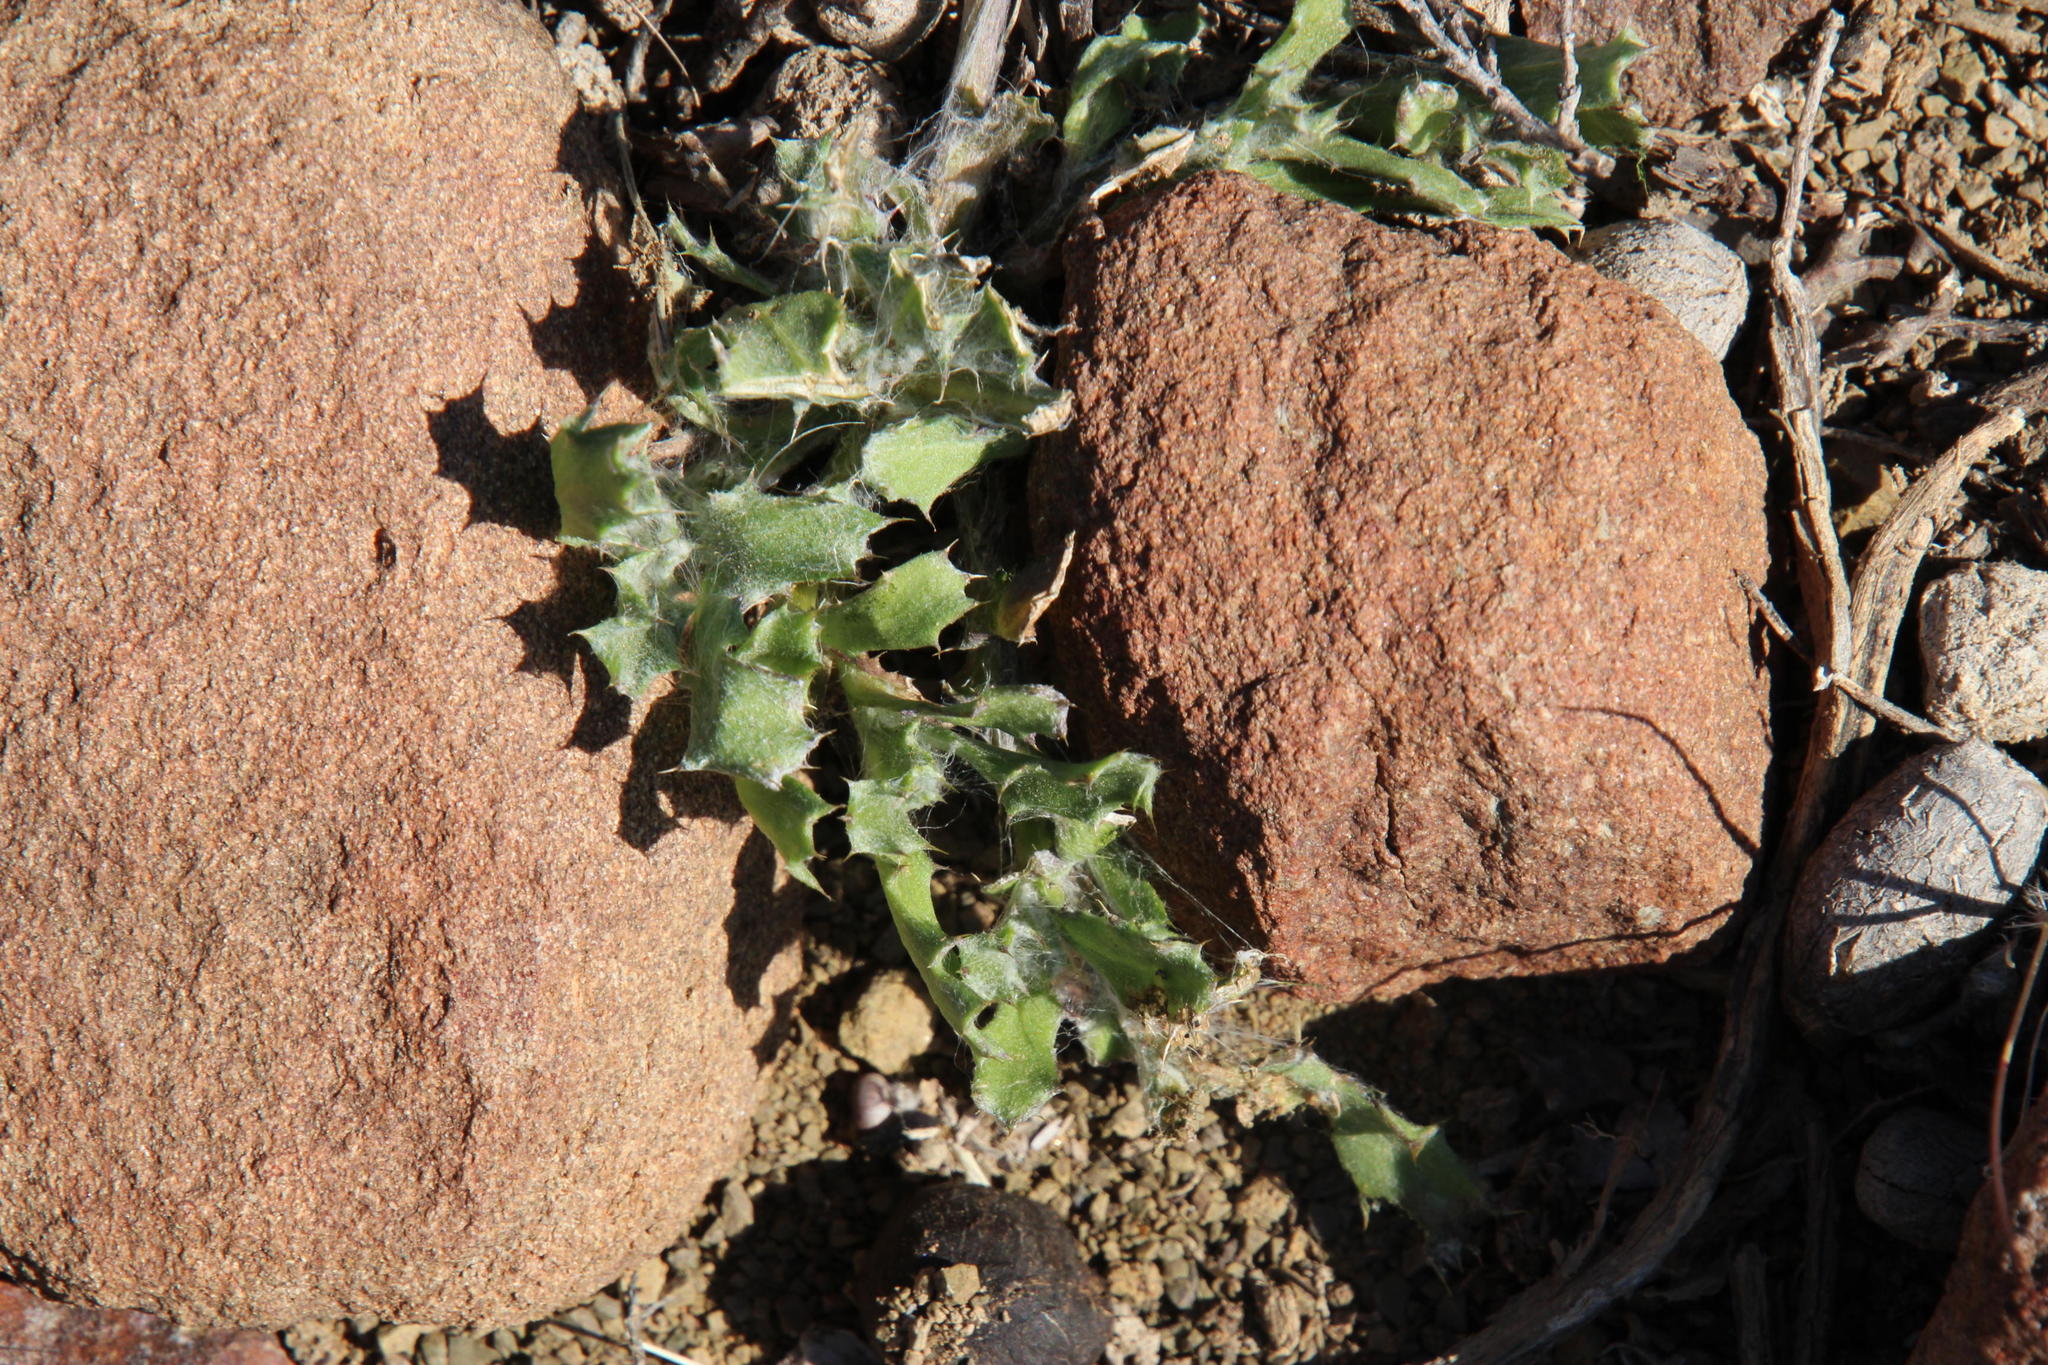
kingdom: Plantae
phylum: Tracheophyta
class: Magnoliopsida
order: Asterales
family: Asteraceae
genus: Cuspidia
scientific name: Cuspidia cernua
